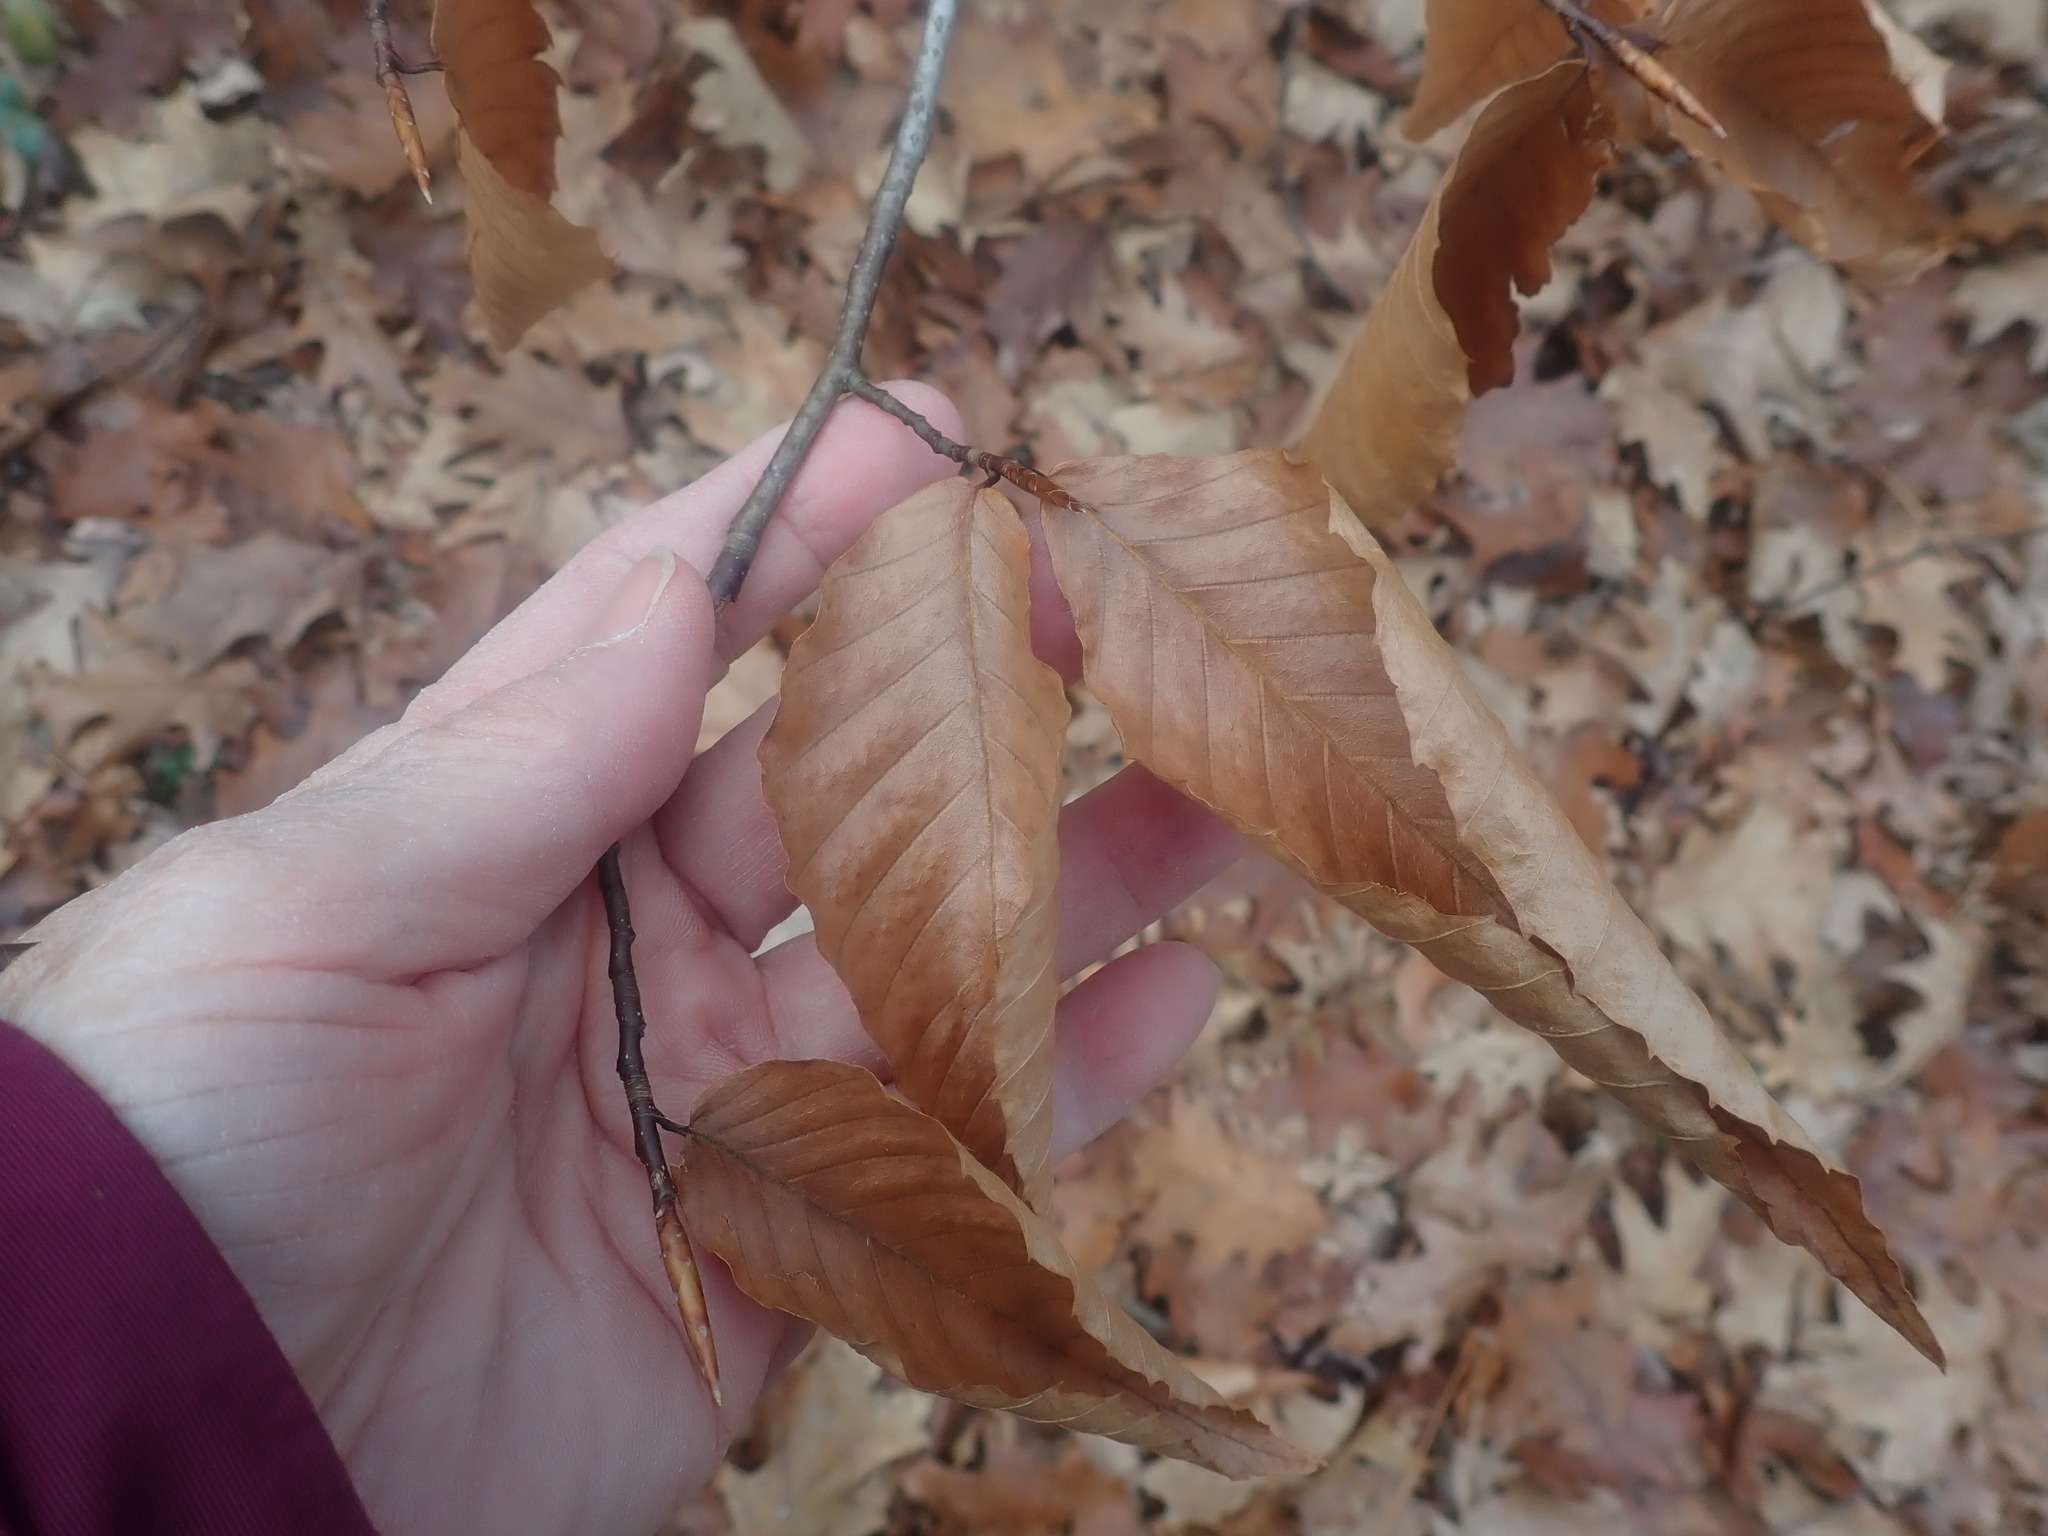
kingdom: Plantae
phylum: Tracheophyta
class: Magnoliopsida
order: Fagales
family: Fagaceae
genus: Fagus
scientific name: Fagus grandifolia
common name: American beech
